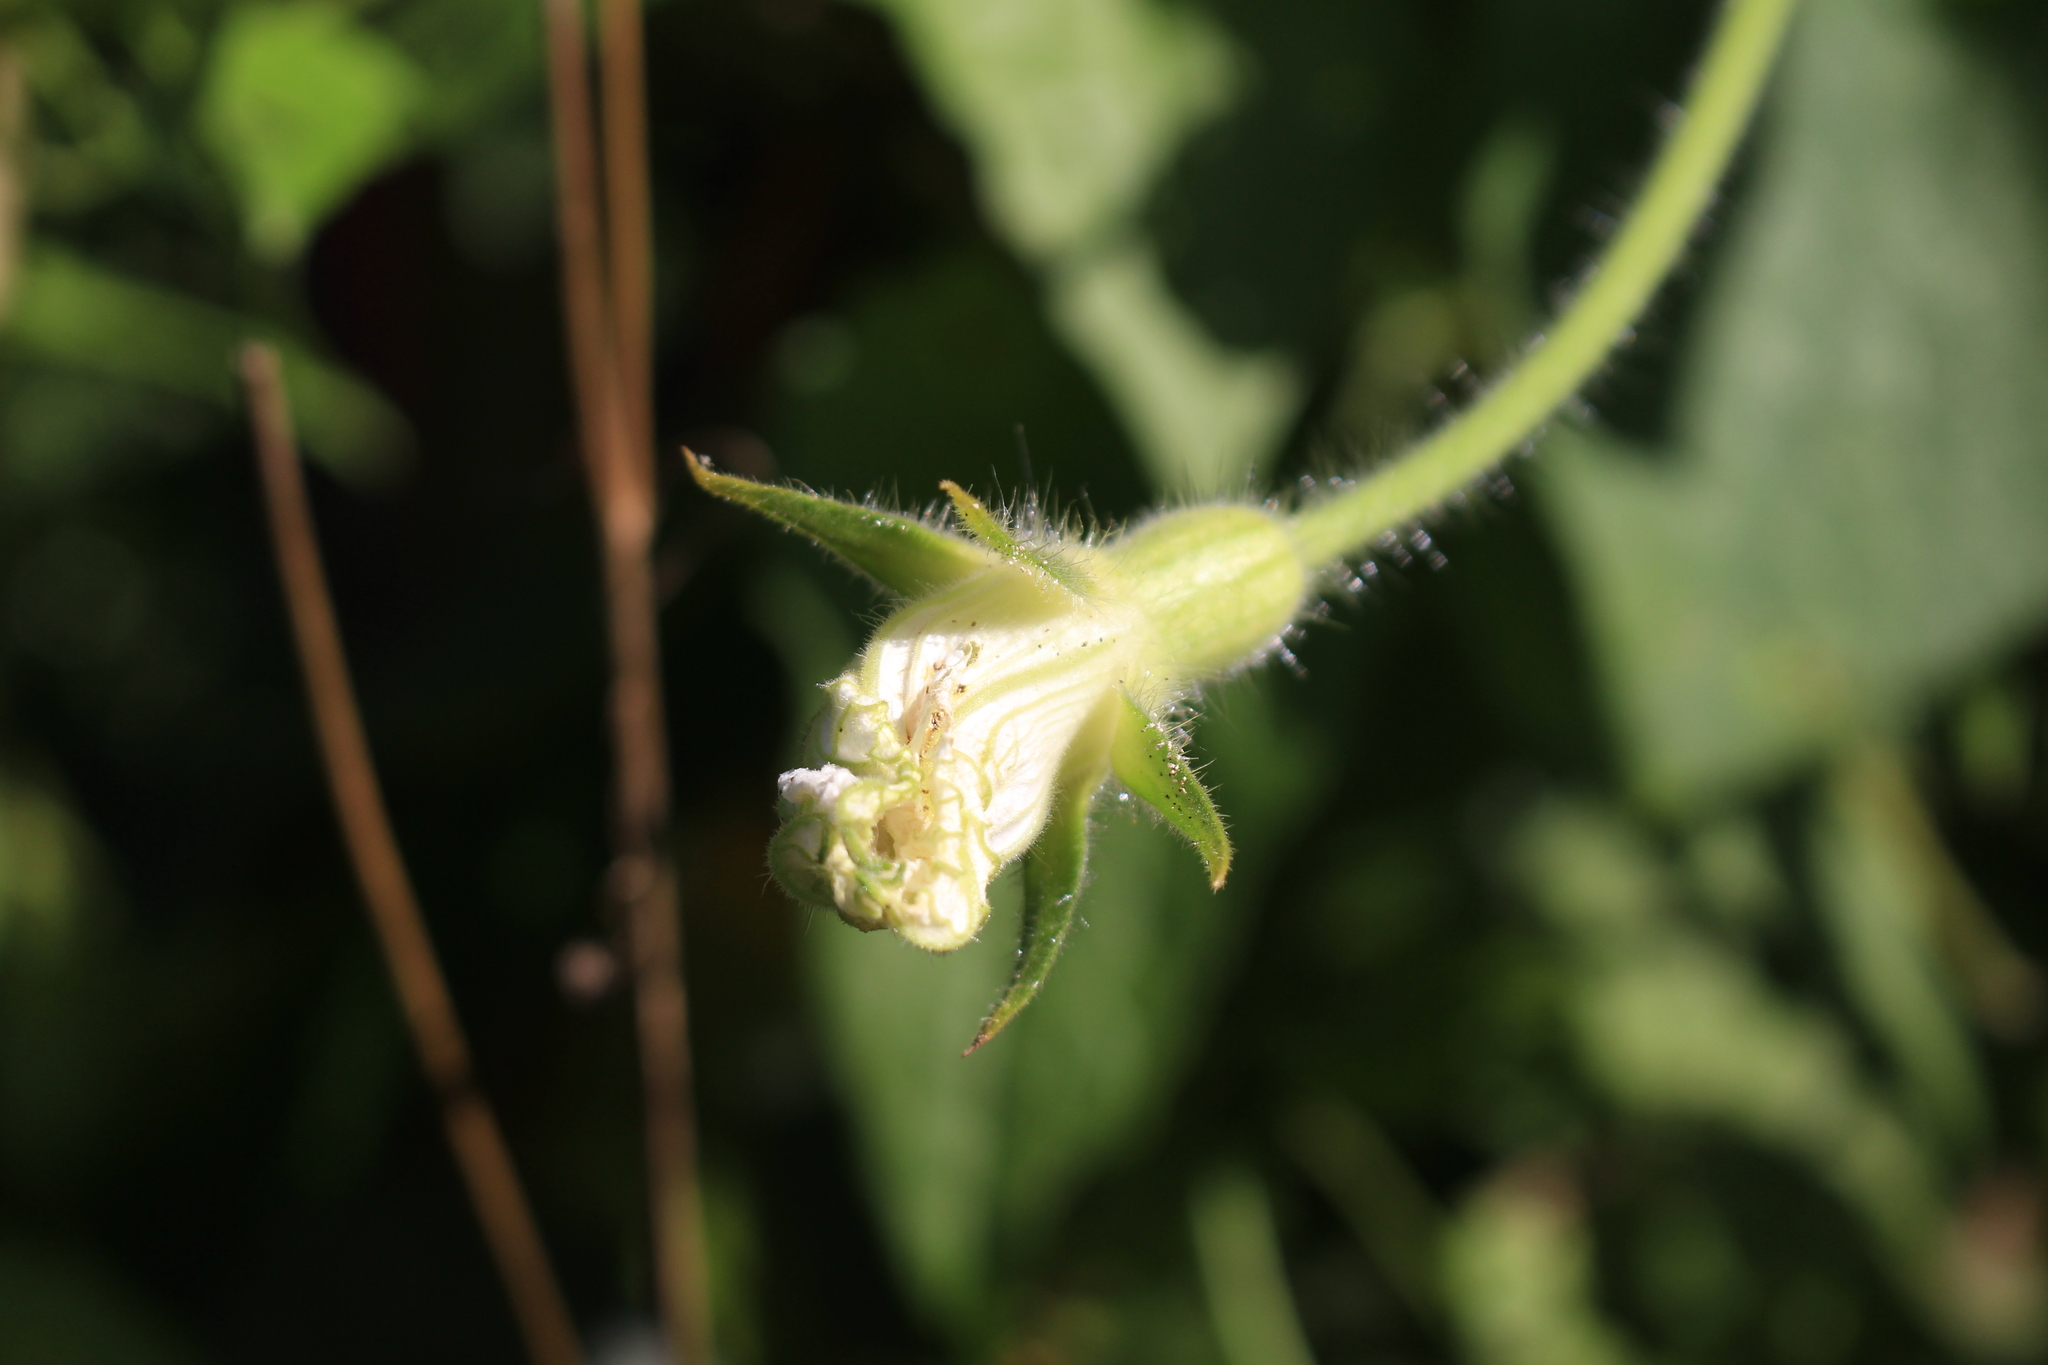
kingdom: Plantae
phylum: Tracheophyta
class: Magnoliopsida
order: Cucurbitales
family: Cucurbitaceae
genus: Polyclathra
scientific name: Polyclathra cucumerina
